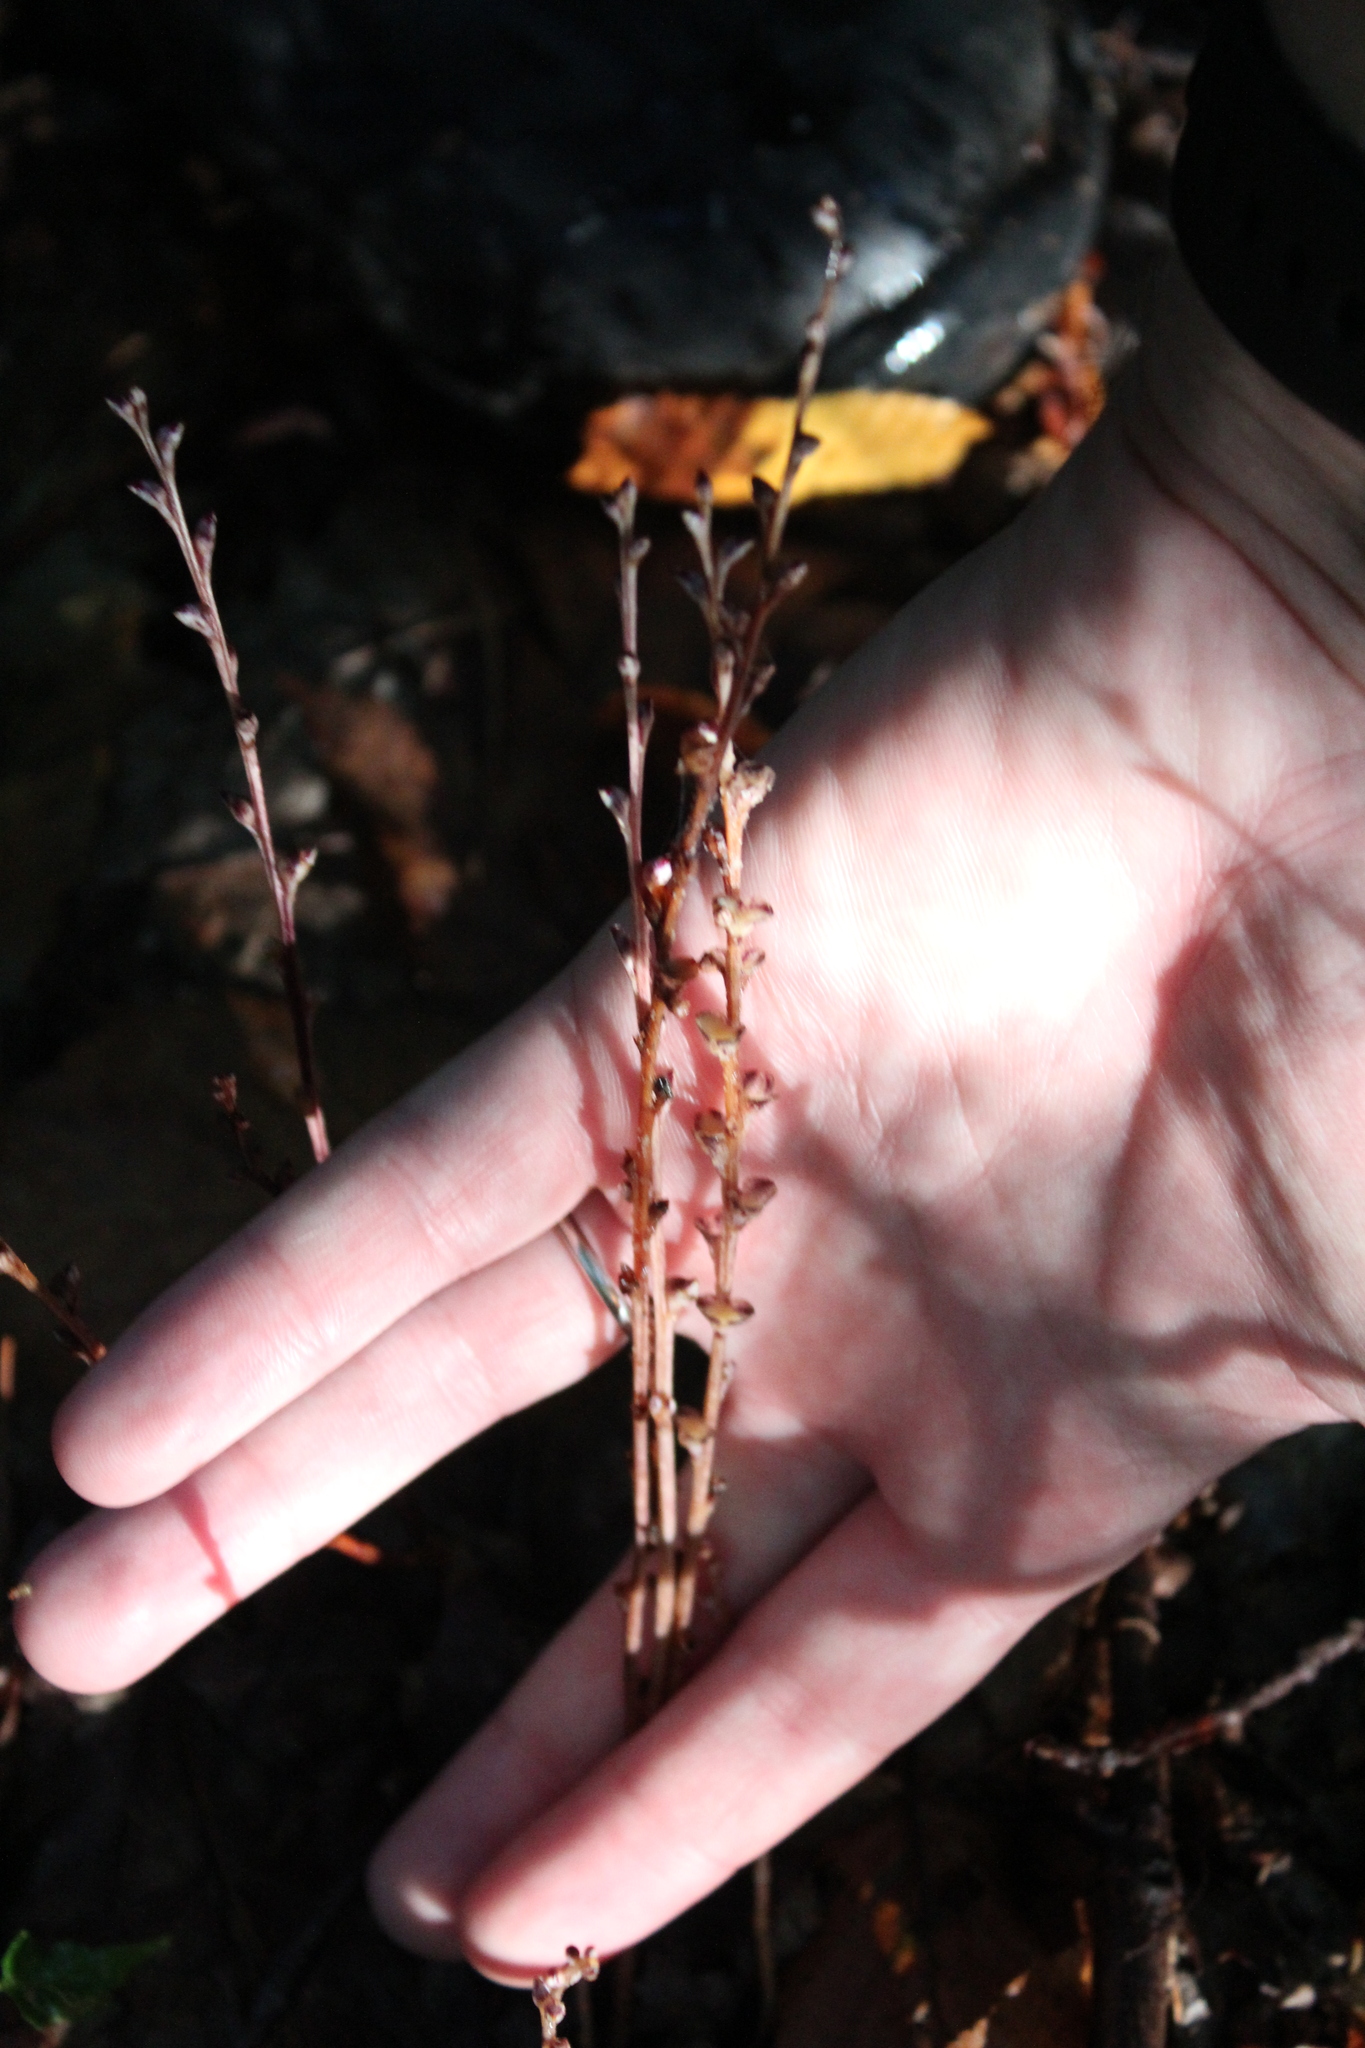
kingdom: Plantae
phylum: Tracheophyta
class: Magnoliopsida
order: Lamiales
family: Orobanchaceae
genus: Epifagus
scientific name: Epifagus virginiana
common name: Beechdrops
